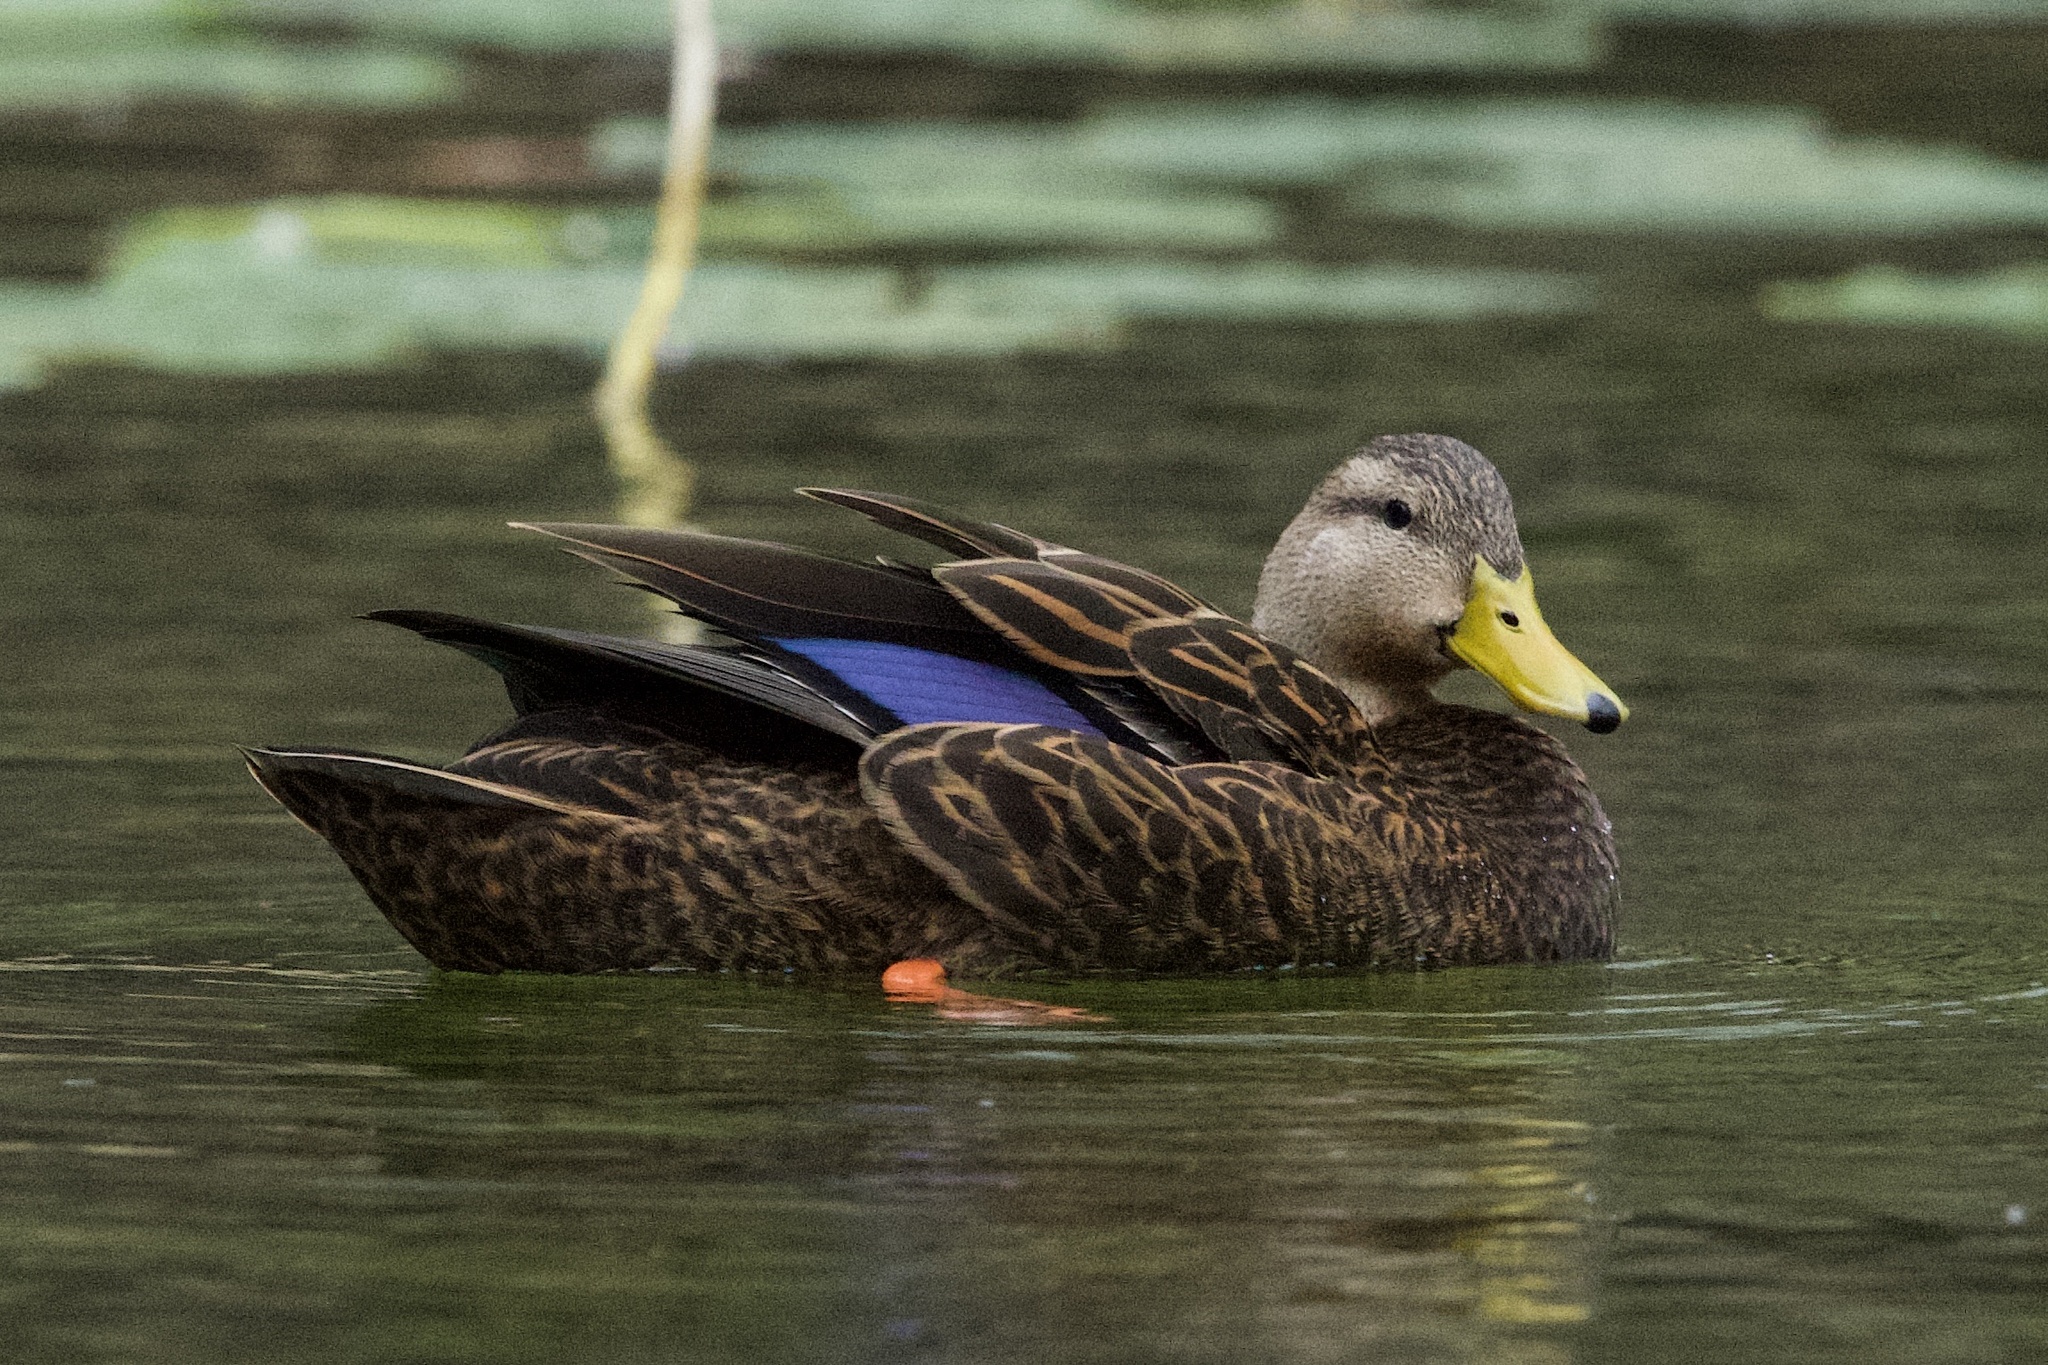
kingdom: Animalia
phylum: Chordata
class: Aves
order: Anseriformes
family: Anatidae
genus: Anas
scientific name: Anas platyrhynchos
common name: Mallard
